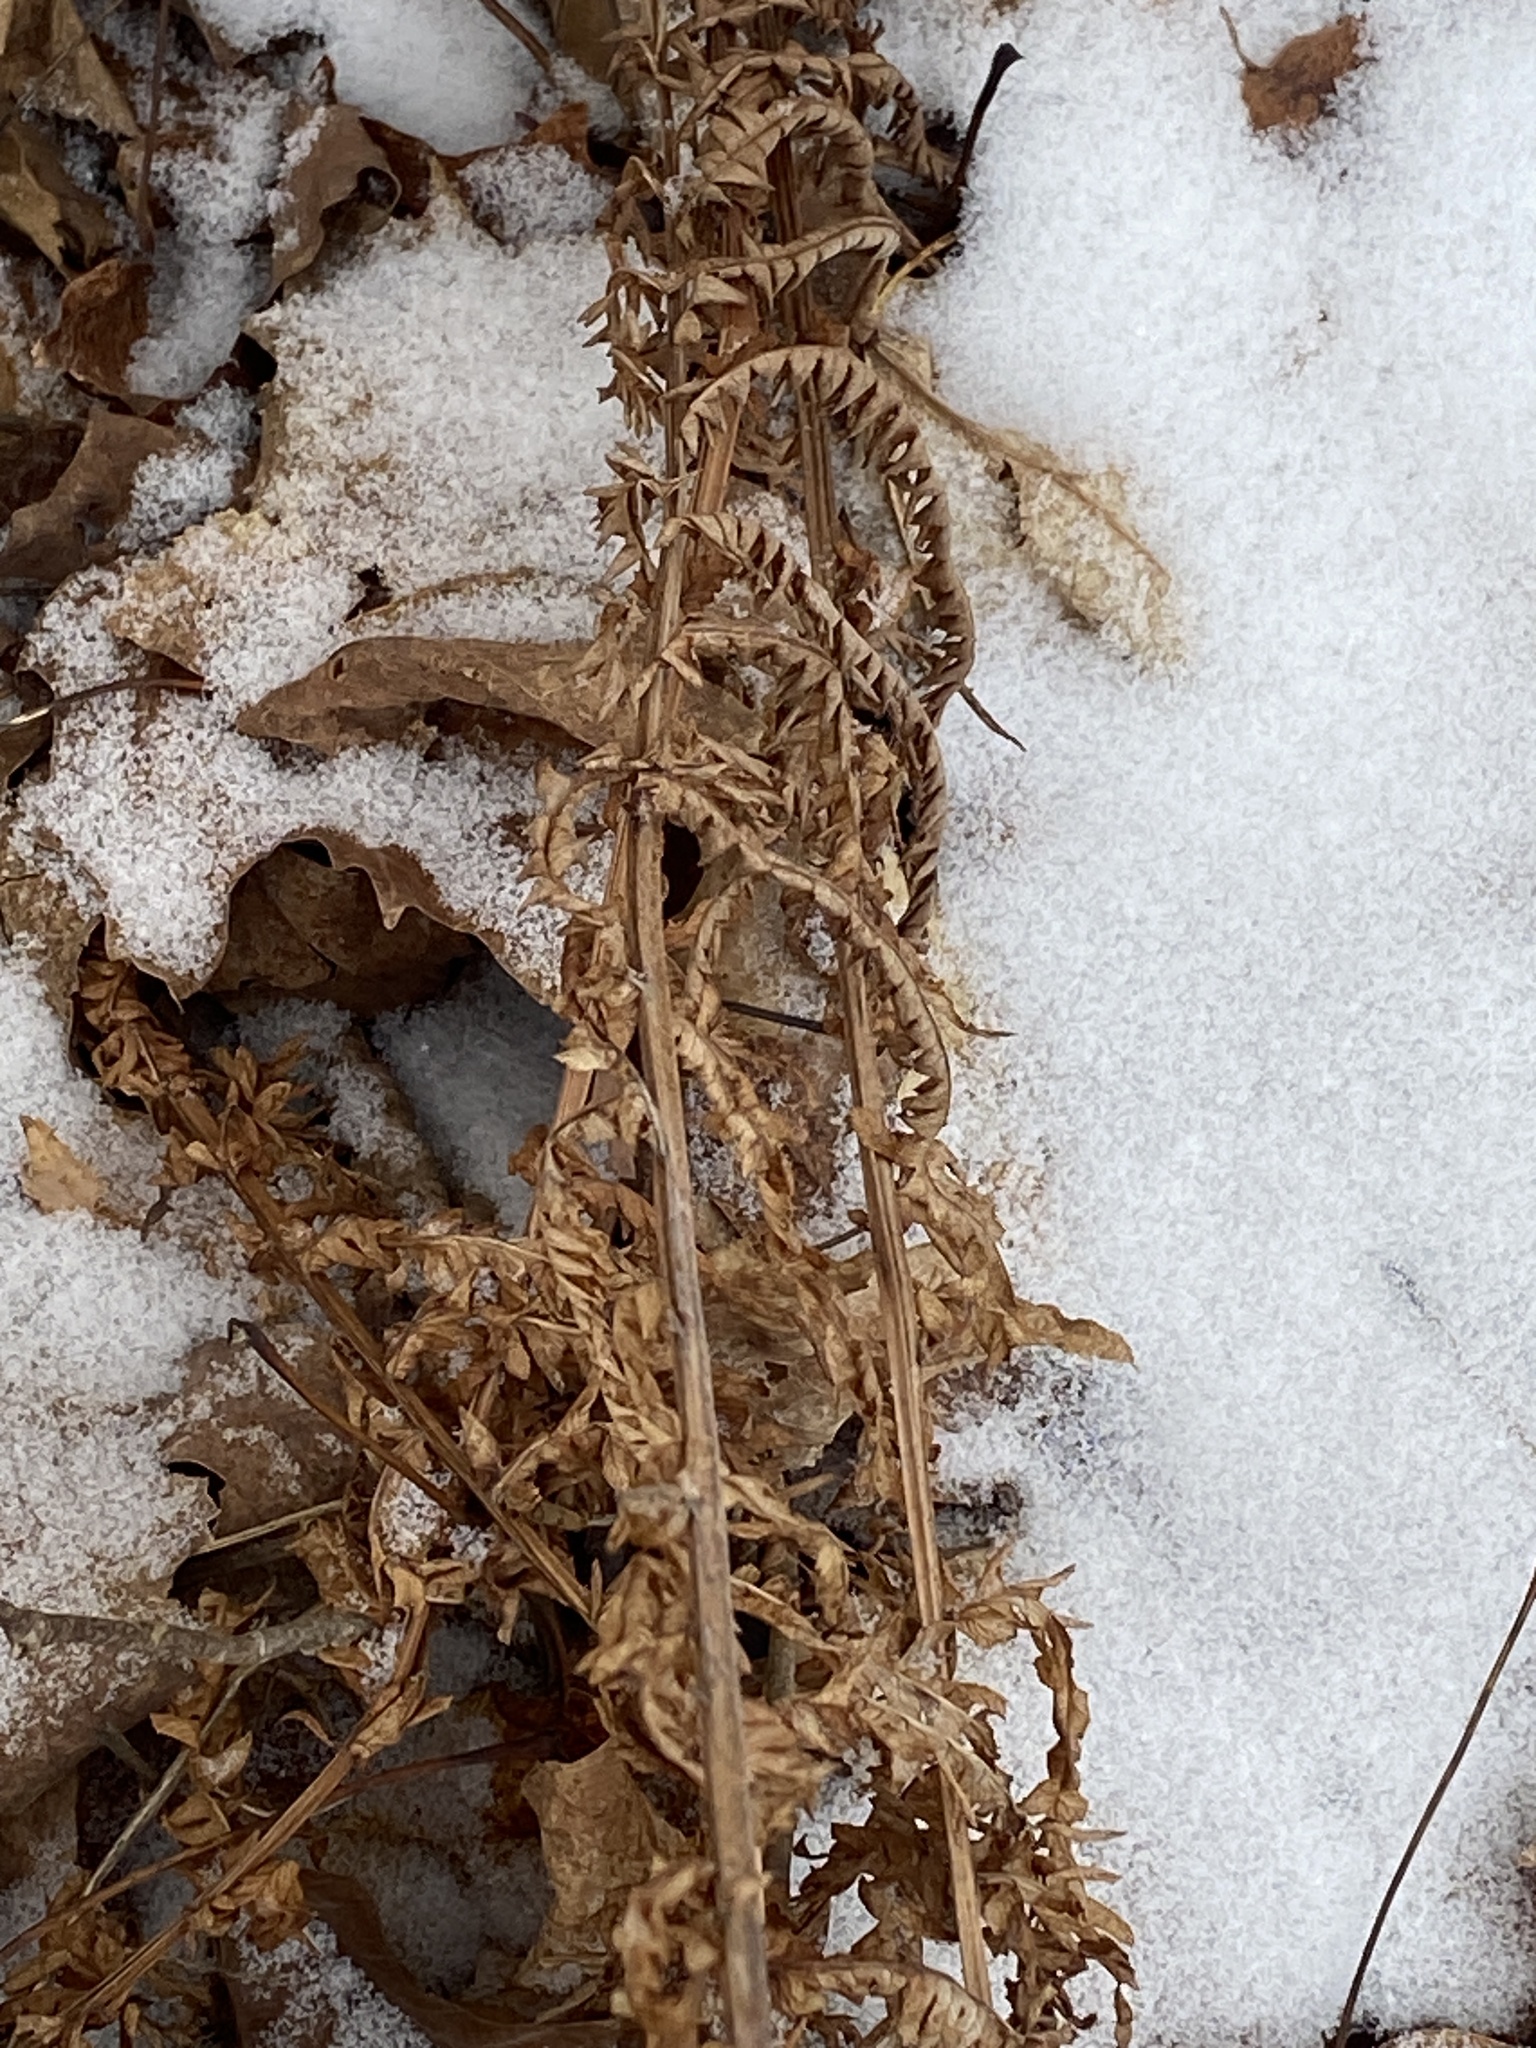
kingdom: Plantae
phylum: Tracheophyta
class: Polypodiopsida
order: Polypodiales
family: Onocleaceae
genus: Matteuccia
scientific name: Matteuccia struthiopteris
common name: Ostrich fern
